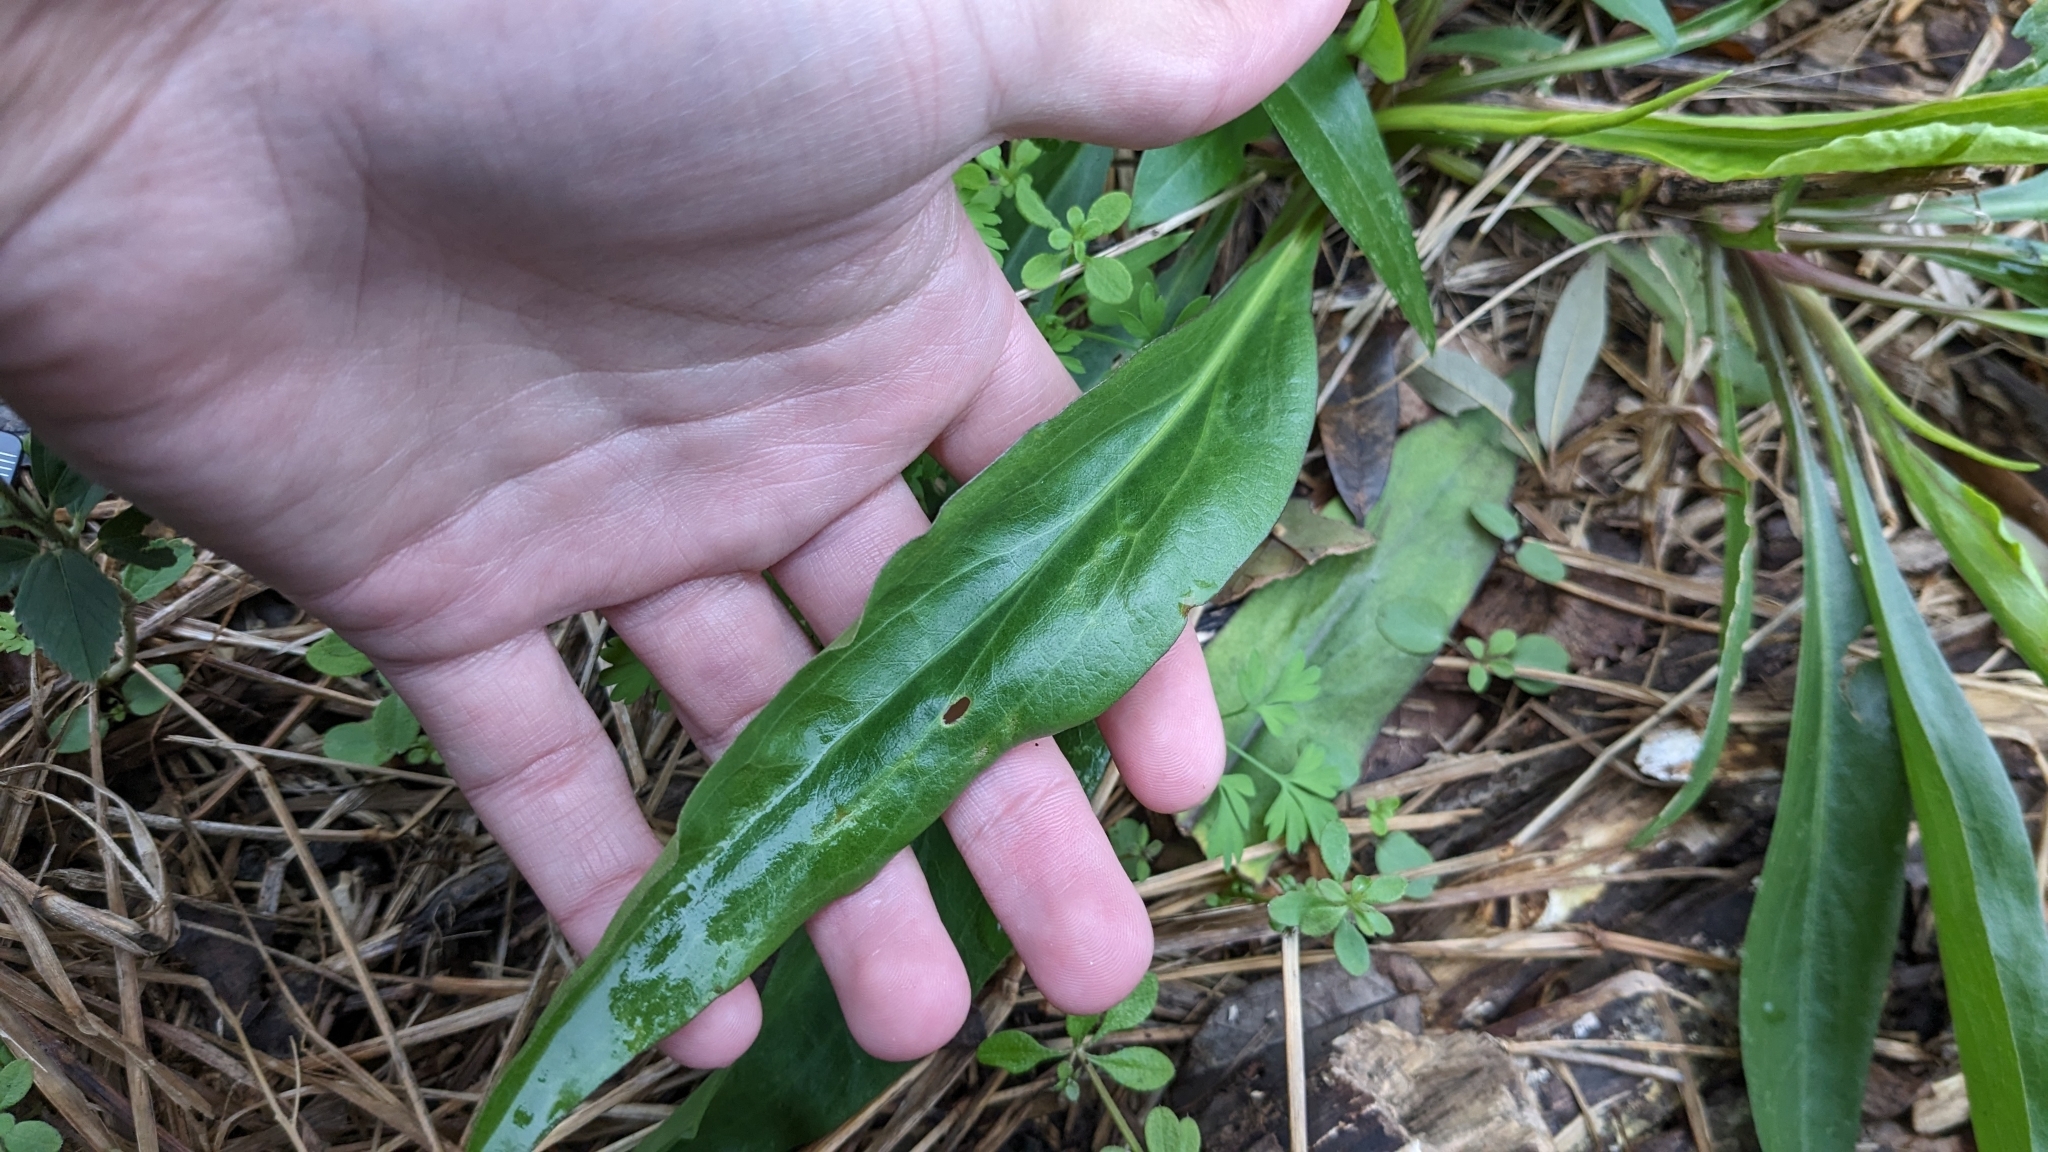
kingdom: Plantae
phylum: Tracheophyta
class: Magnoliopsida
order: Asterales
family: Asteraceae
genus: Solidago
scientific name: Solidago mexicana
